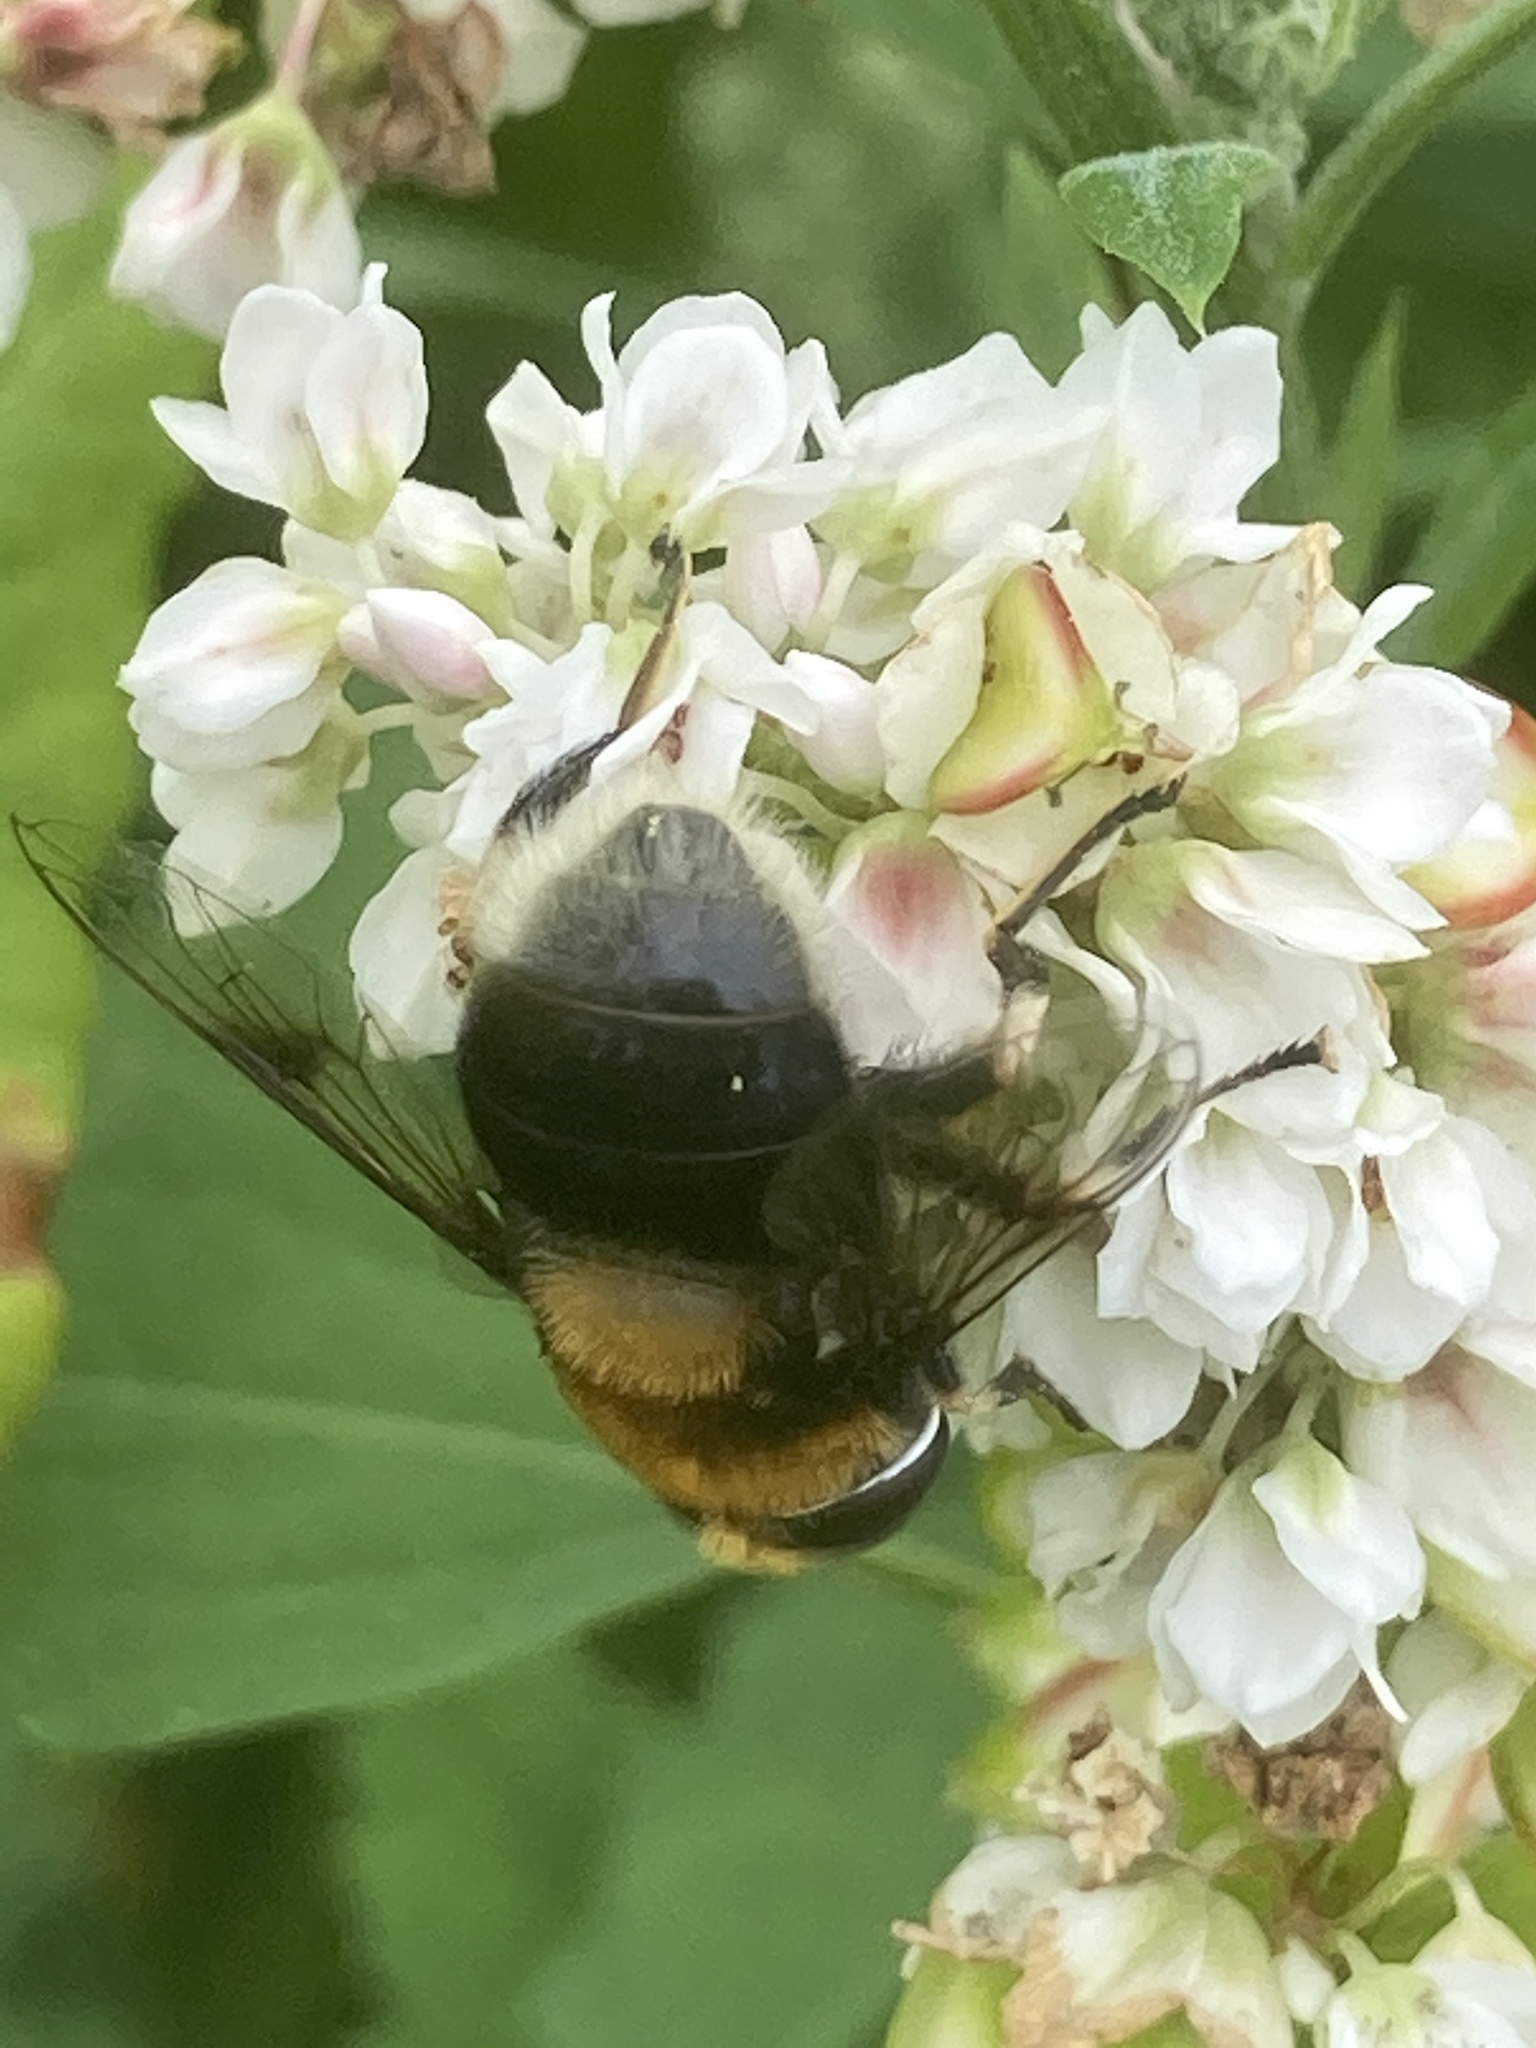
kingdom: Animalia
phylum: Arthropoda
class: Insecta
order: Diptera
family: Syrphidae
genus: Eristalis
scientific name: Eristalis intricaria
